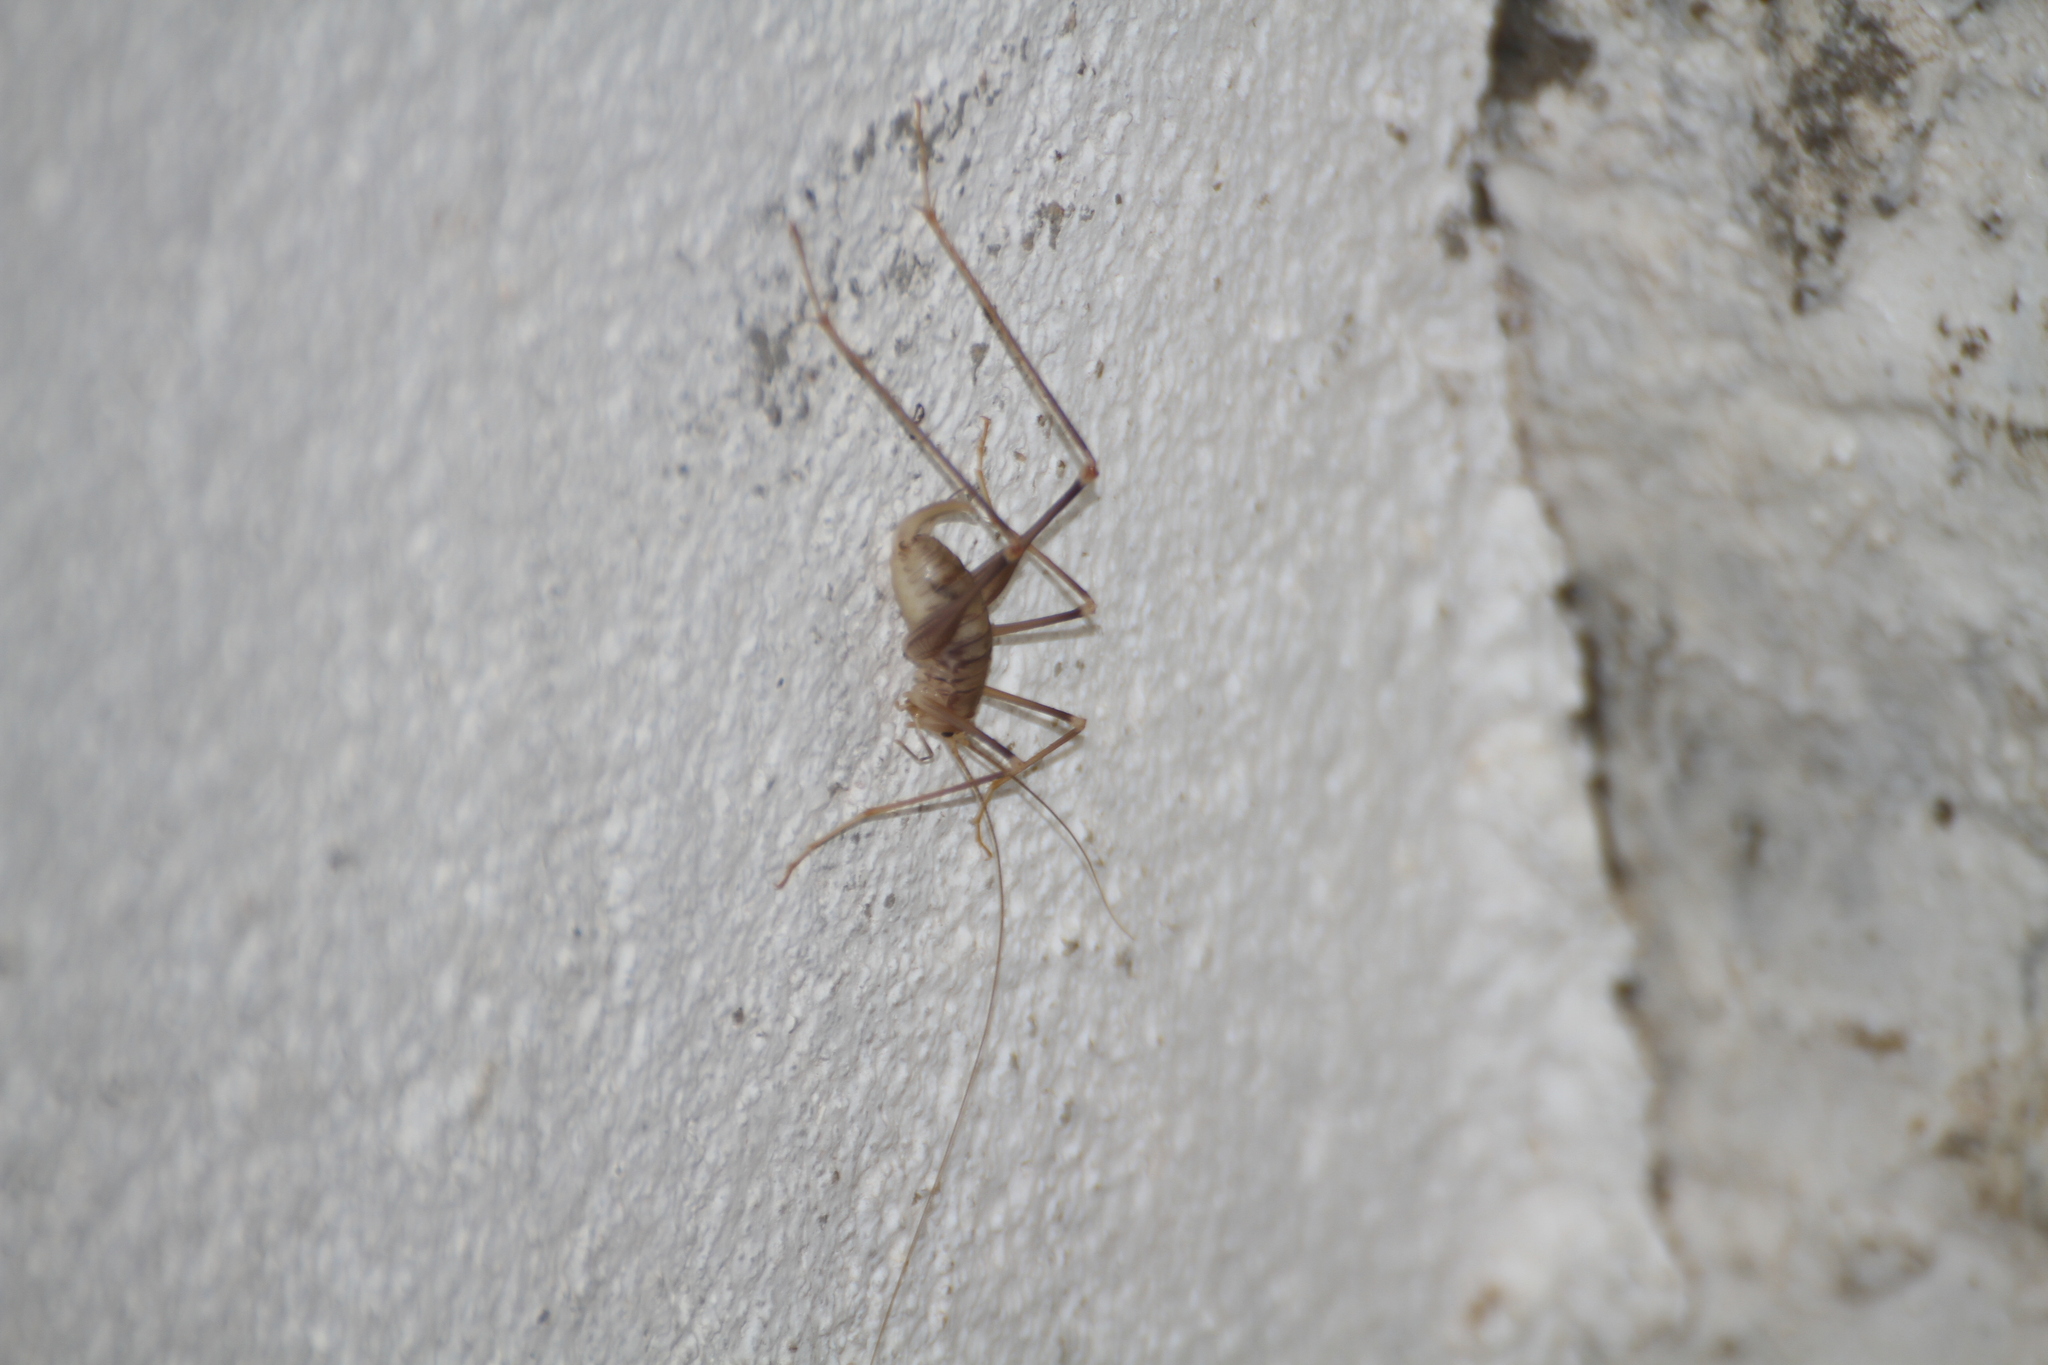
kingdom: Animalia
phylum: Arthropoda
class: Insecta
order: Orthoptera
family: Rhaphidophoridae
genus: Dolichopoda
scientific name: Dolichopoda azami
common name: Azam's cave-cricket
